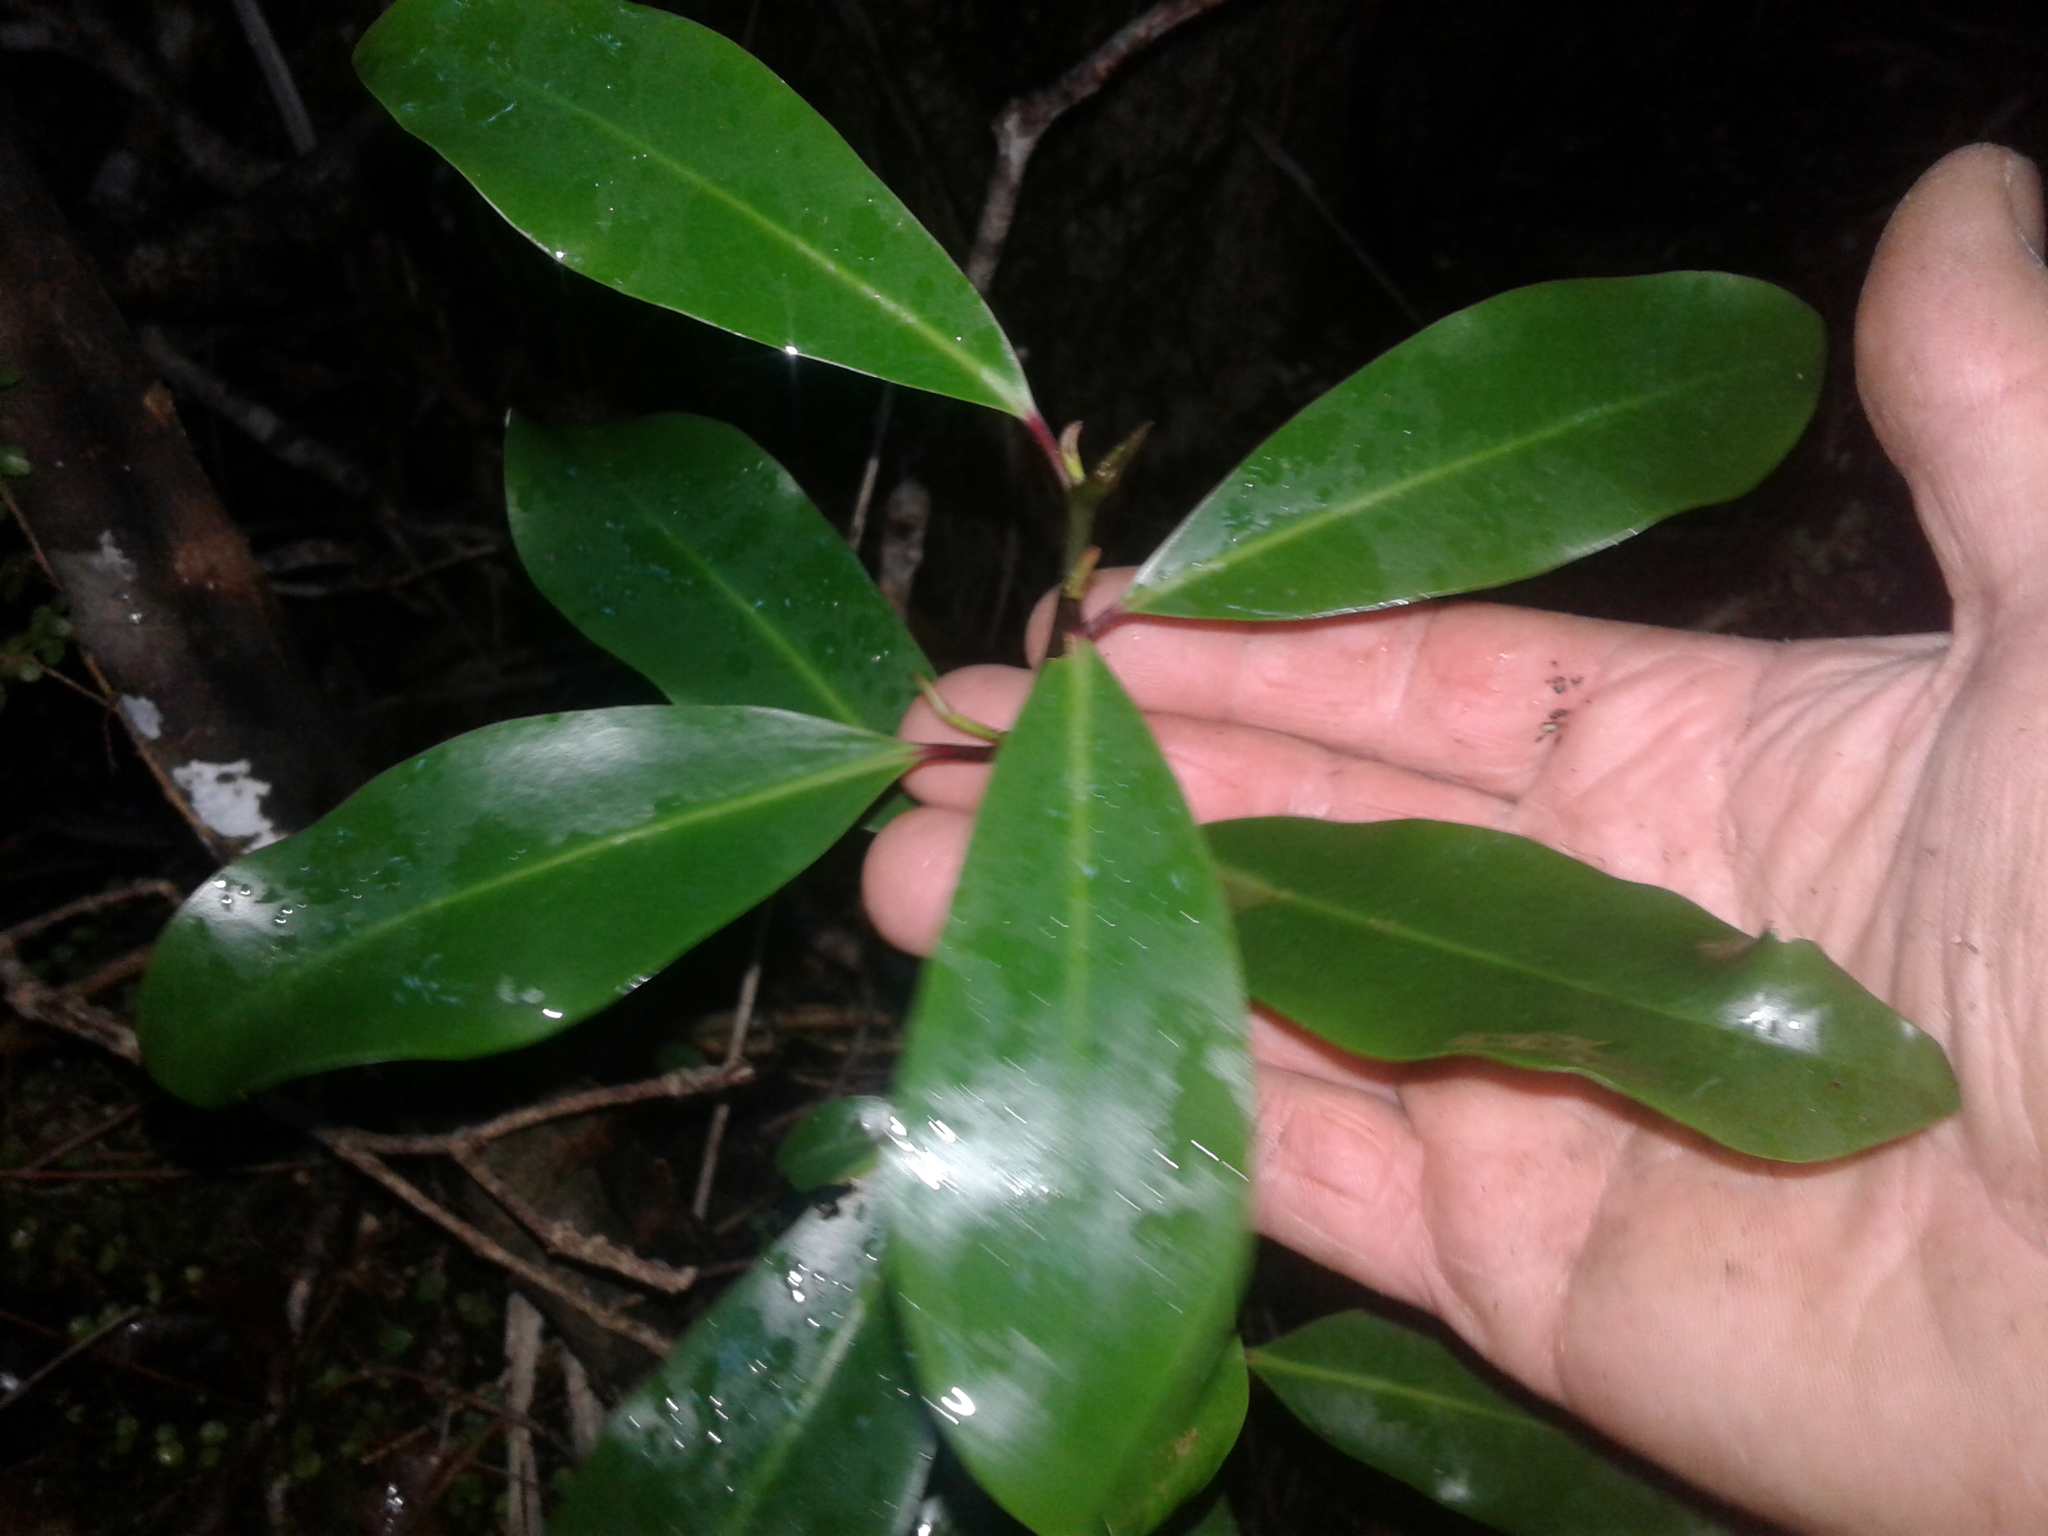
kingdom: Plantae
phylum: Tracheophyta
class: Magnoliopsida
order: Canellales
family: Winteraceae
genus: Pseudowintera
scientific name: Pseudowintera axillaris
